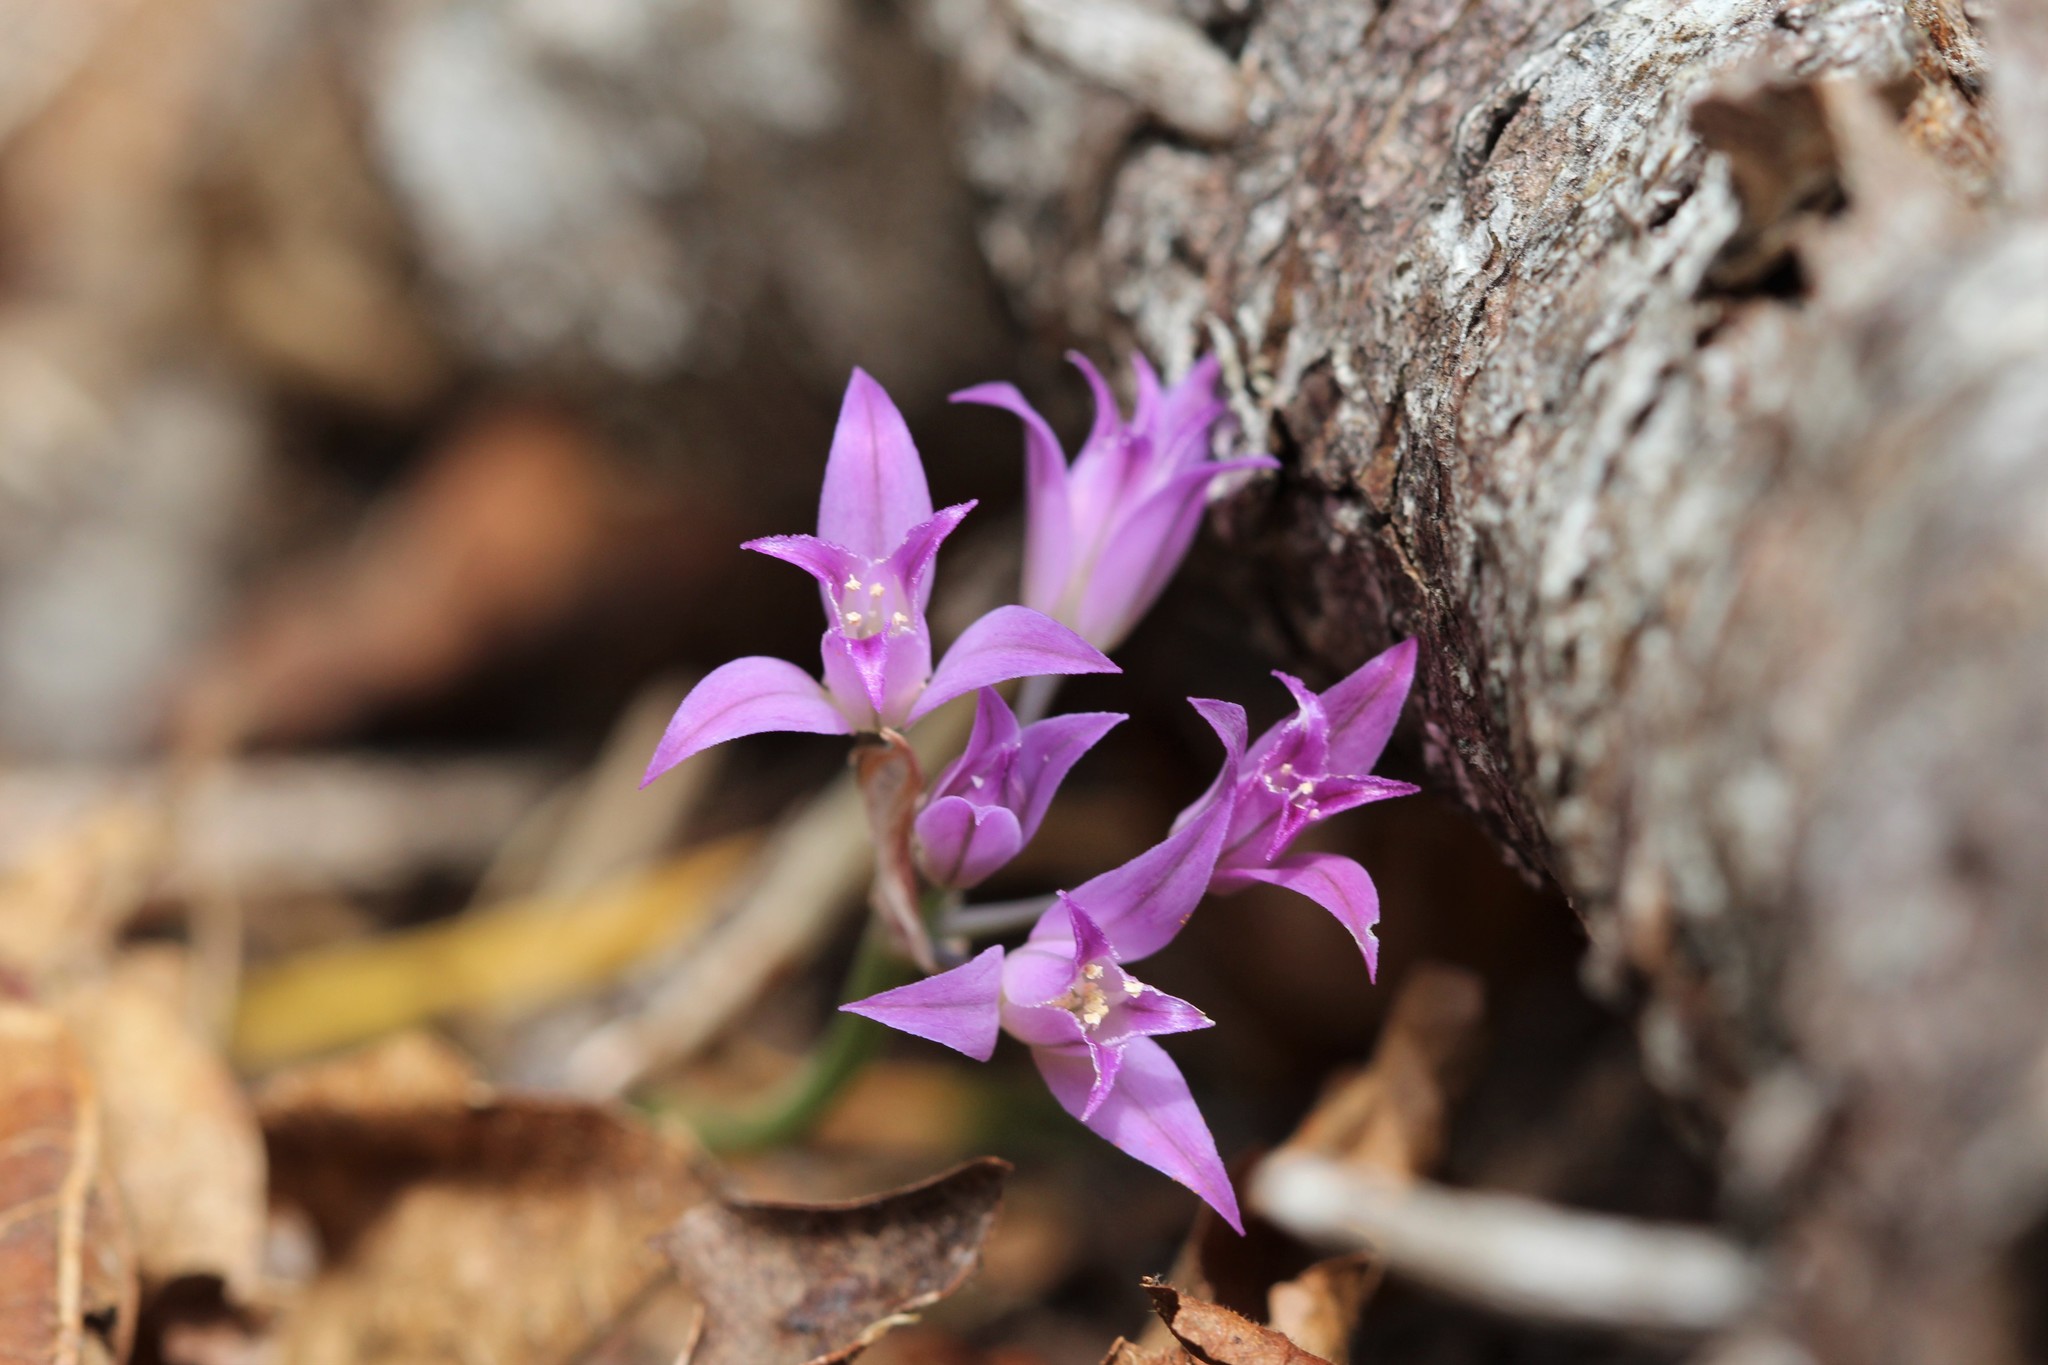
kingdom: Plantae
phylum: Tracheophyta
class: Liliopsida
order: Asparagales
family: Amaryllidaceae
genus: Allium
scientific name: Allium acuminatum
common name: Hooker's onion
